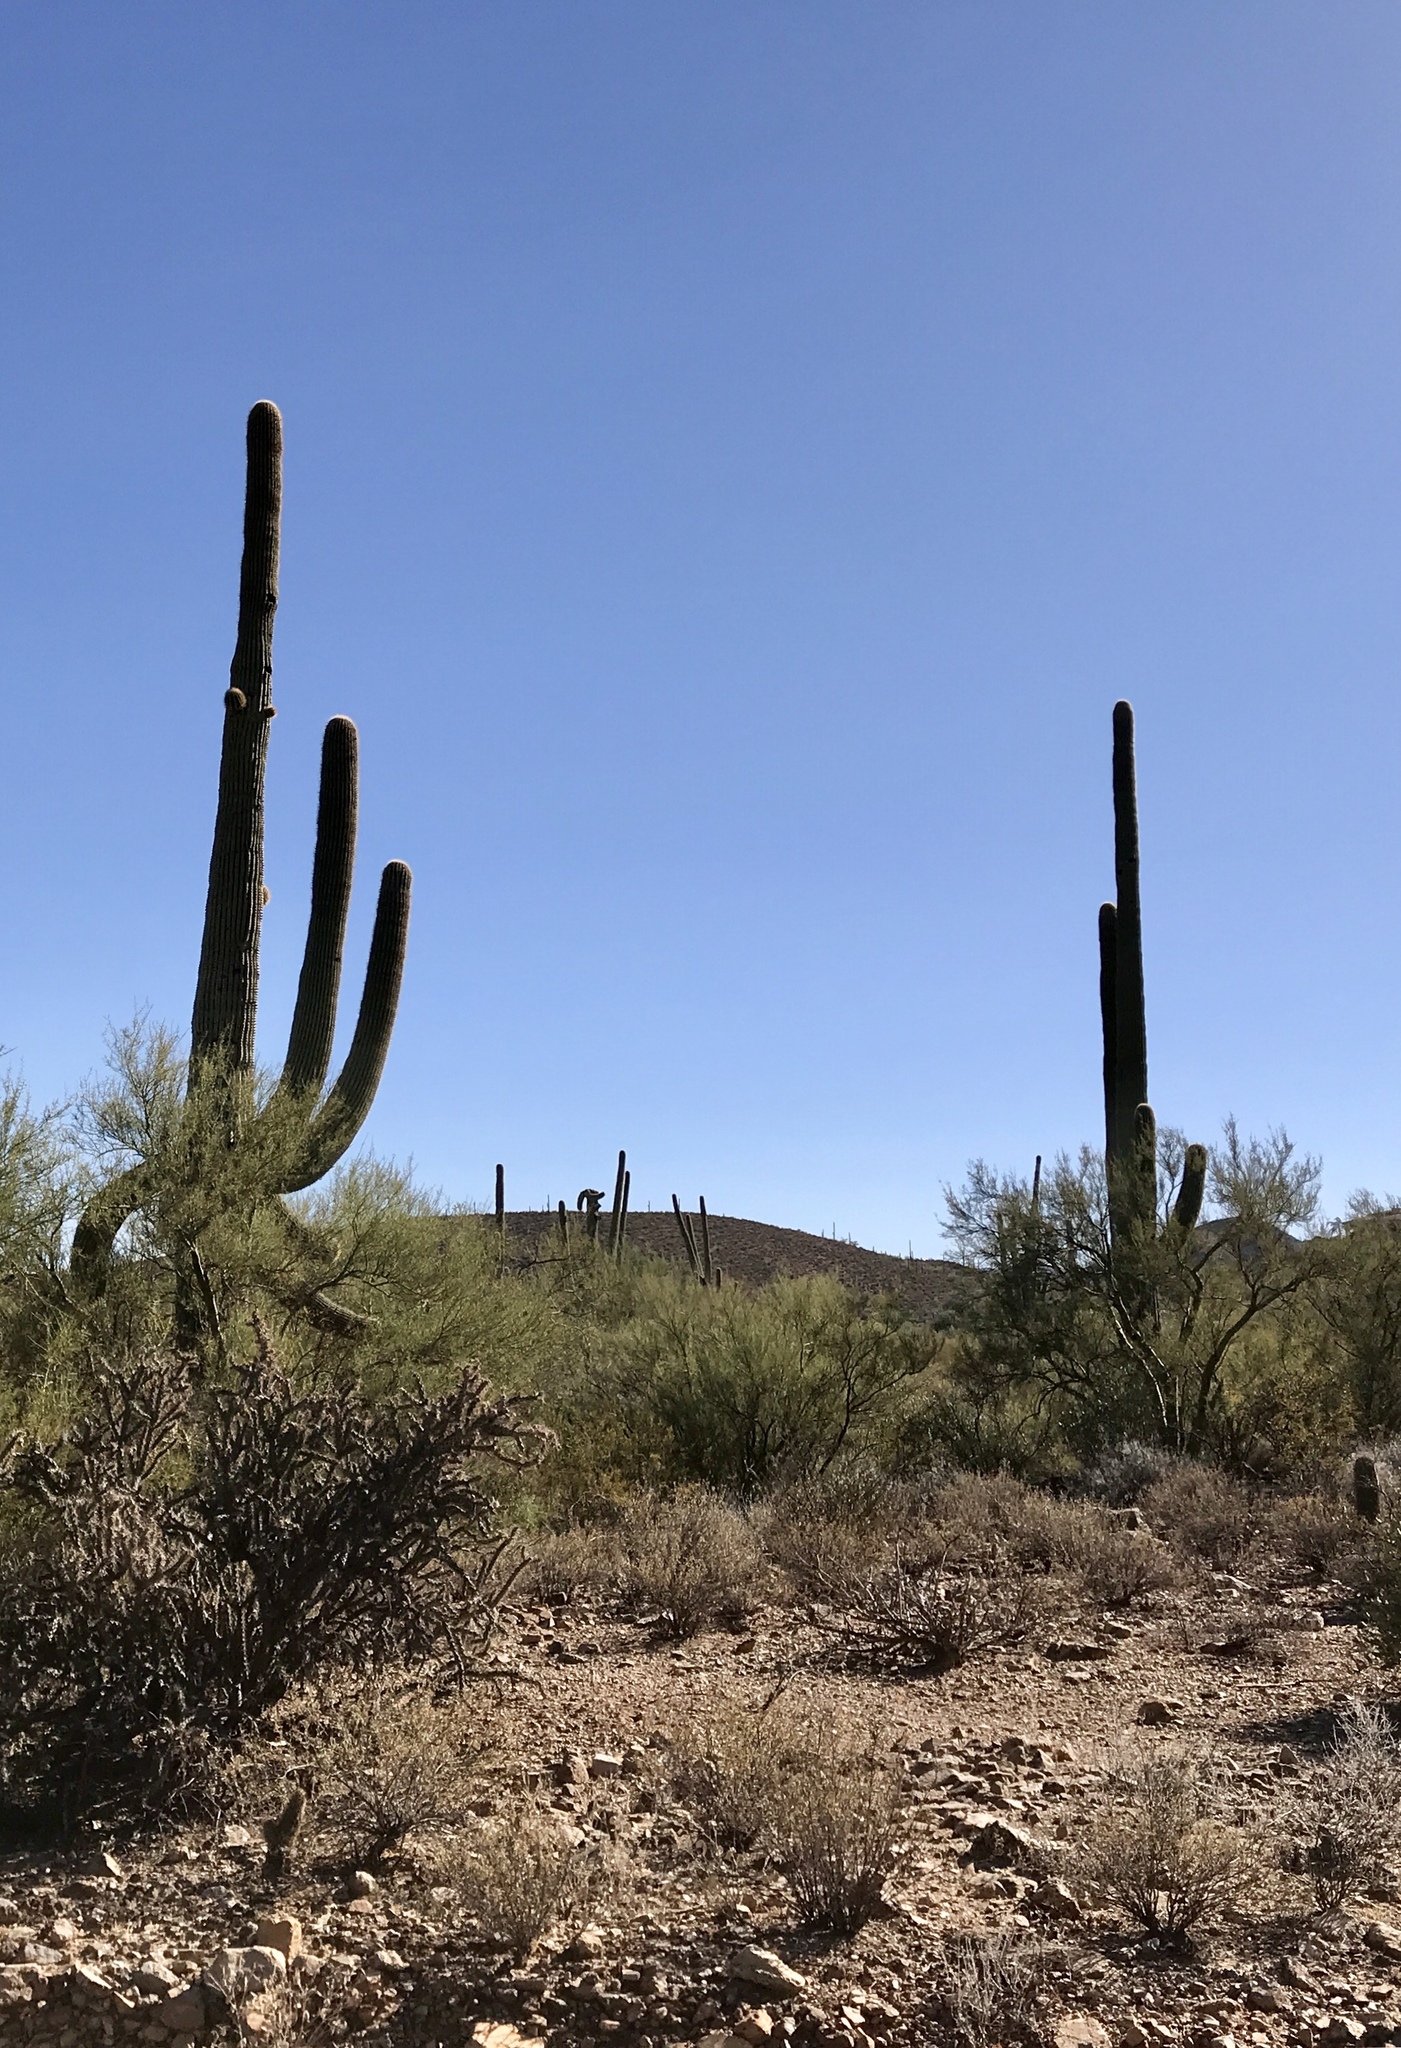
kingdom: Plantae
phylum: Tracheophyta
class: Magnoliopsida
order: Caryophyllales
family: Cactaceae
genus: Carnegiea
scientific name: Carnegiea gigantea
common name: Saguaro
